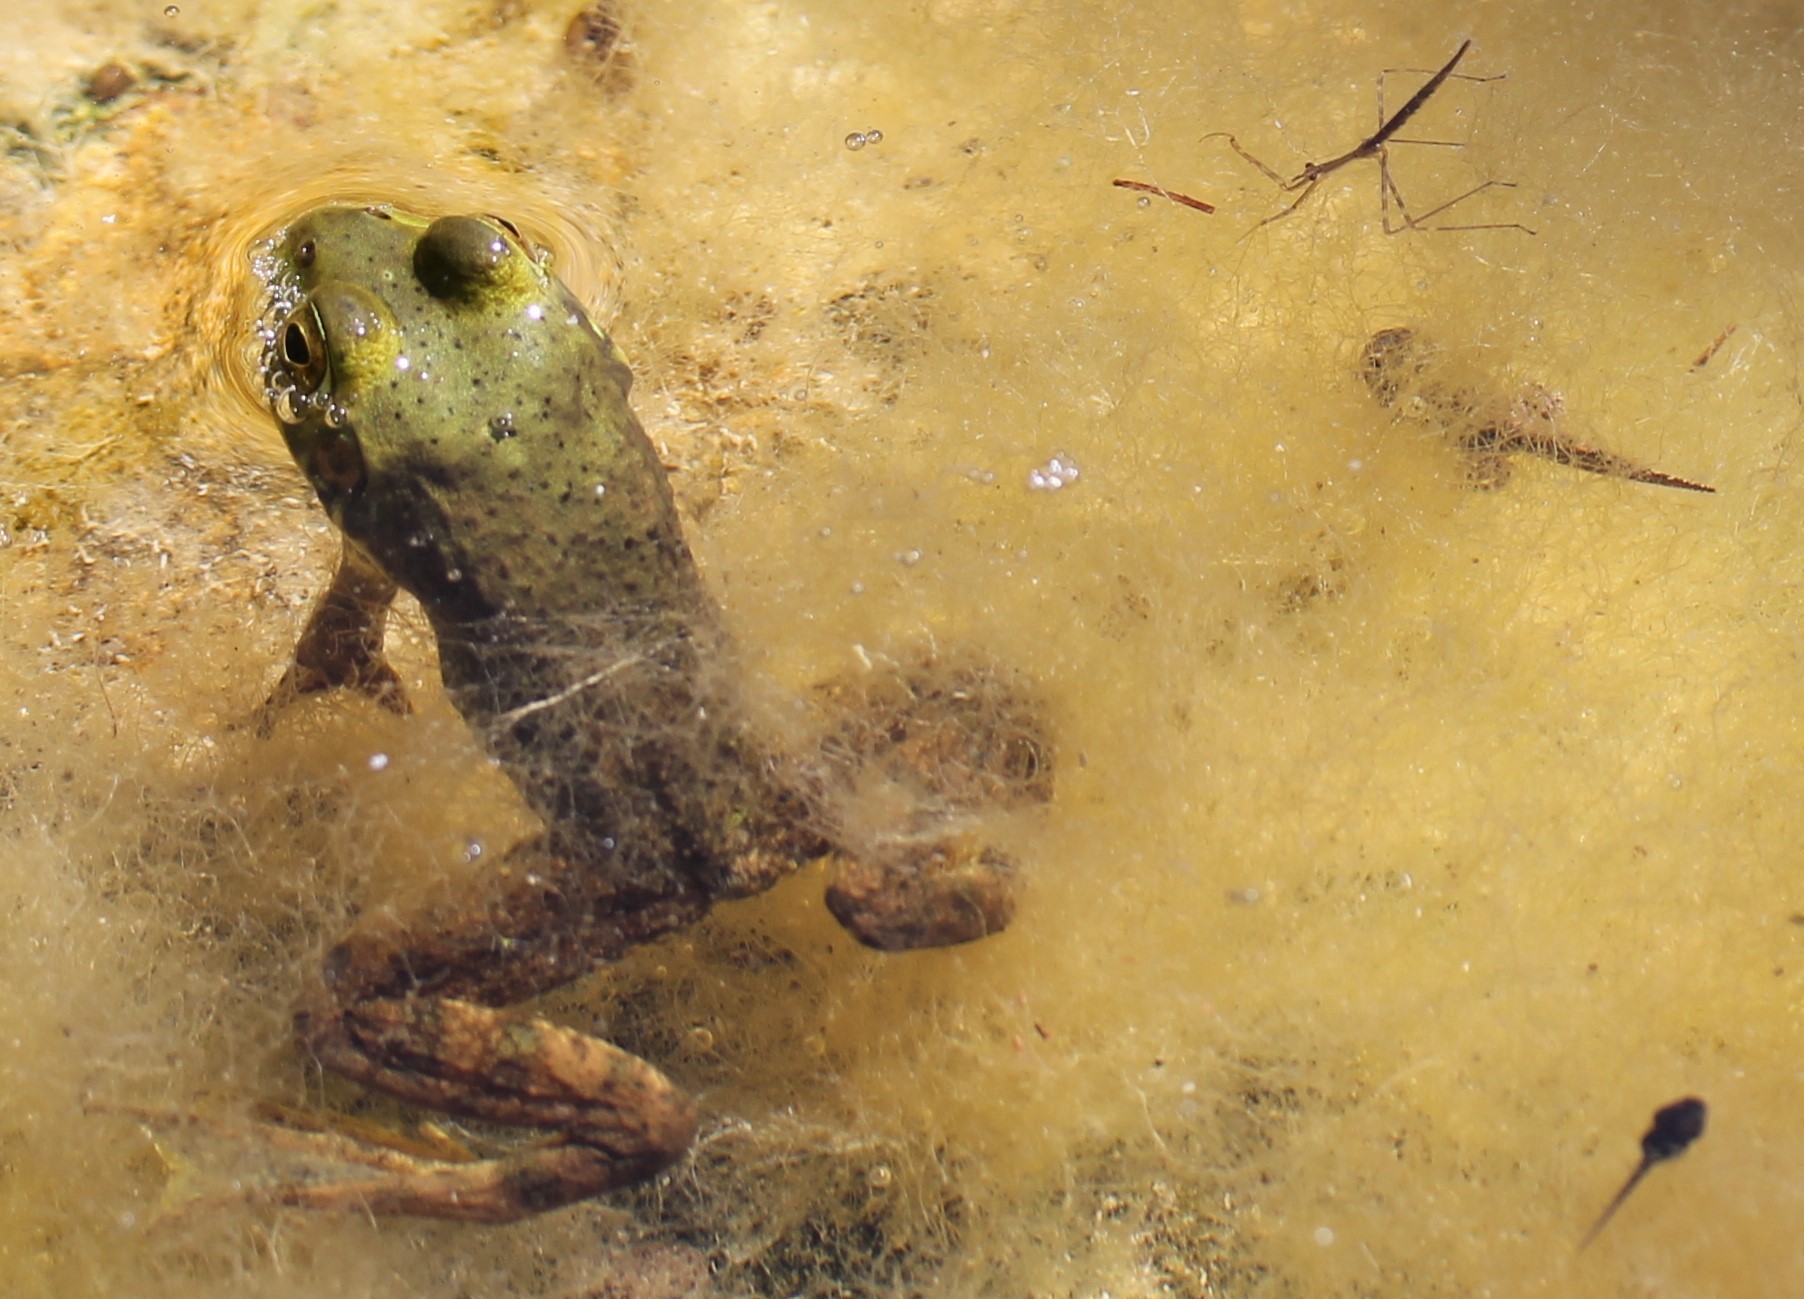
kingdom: Animalia
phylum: Chordata
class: Amphibia
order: Anura
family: Ranidae
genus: Lithobates
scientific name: Lithobates catesbeianus
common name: American bullfrog
